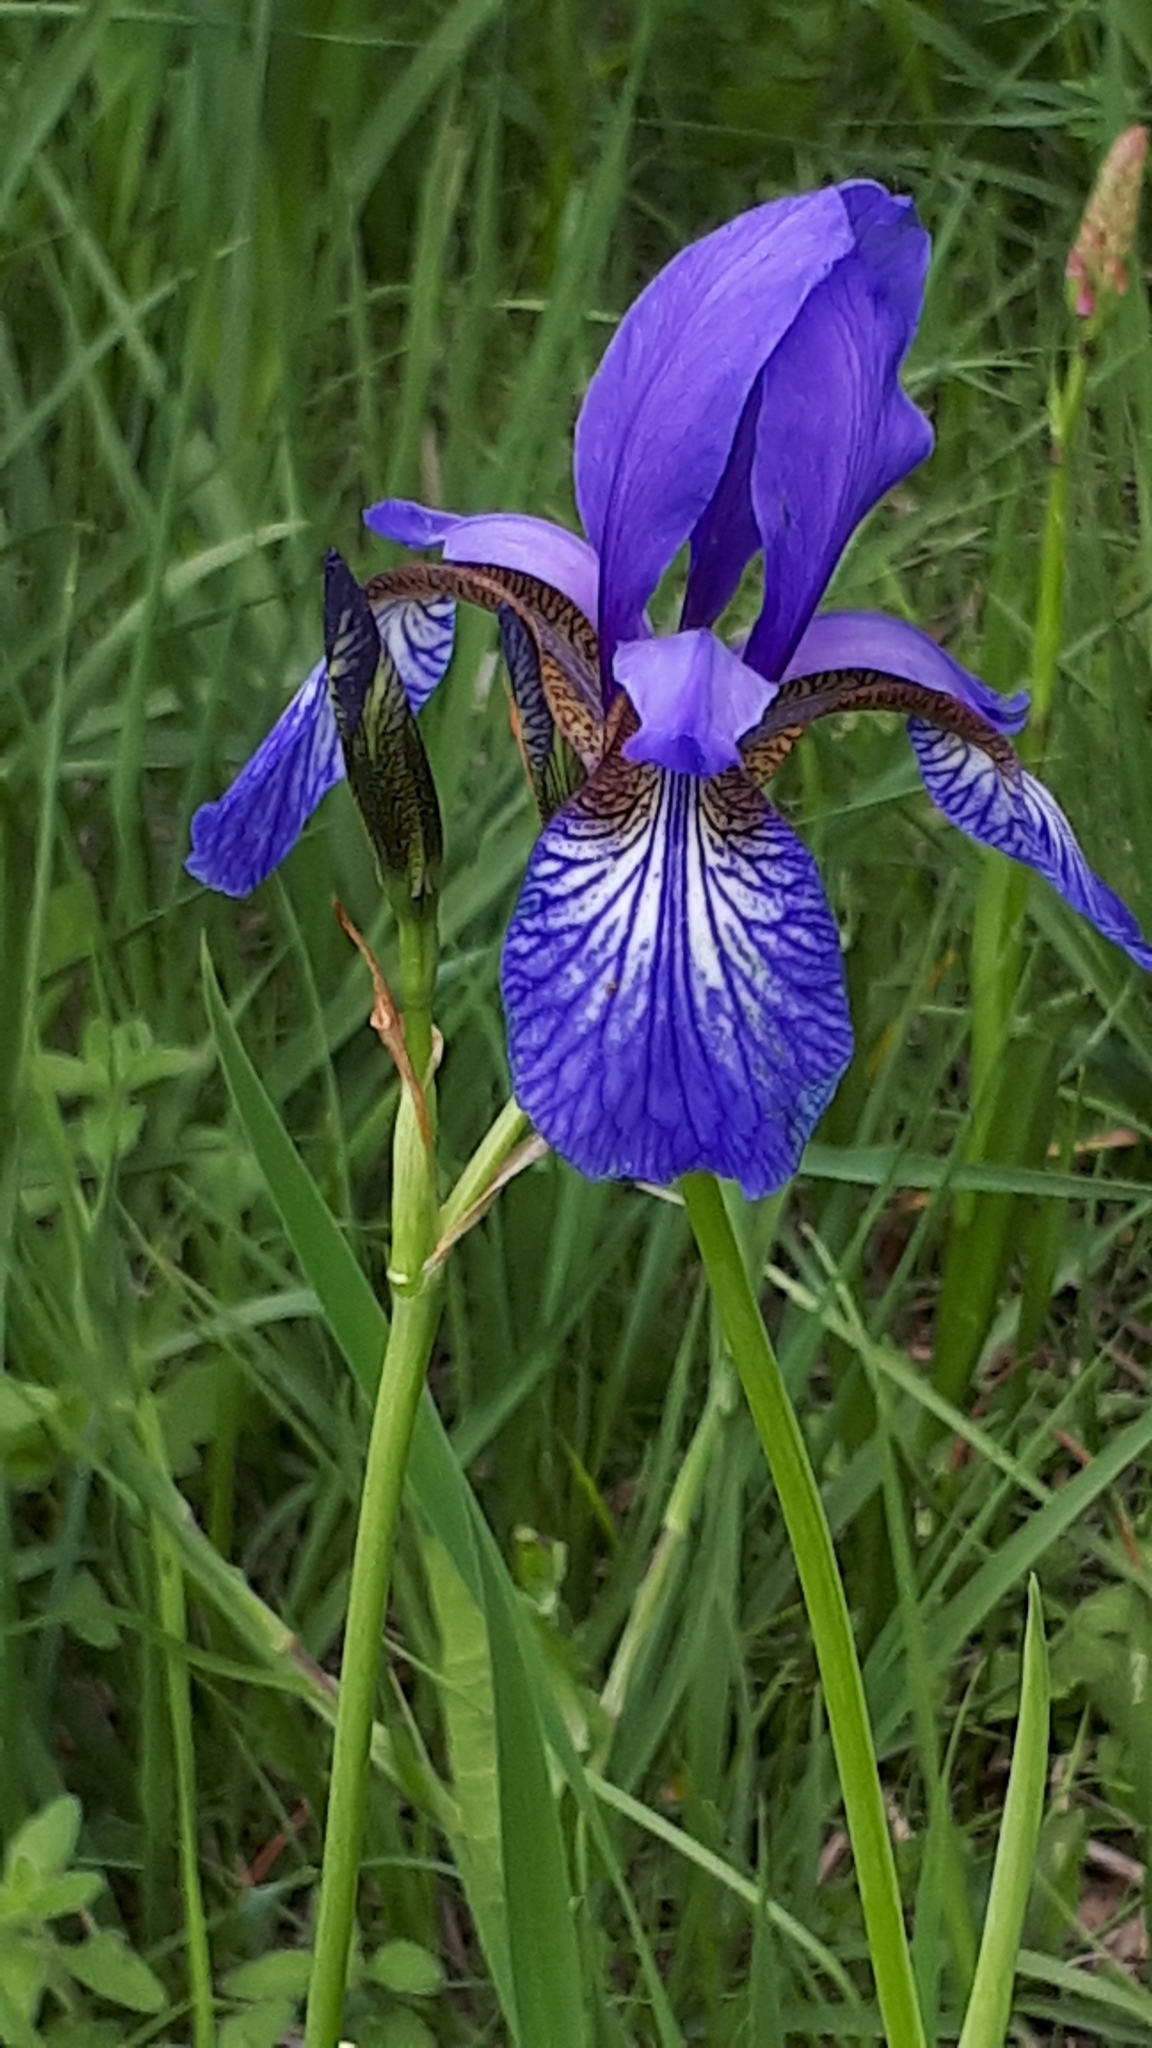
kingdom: Plantae
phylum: Tracheophyta
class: Liliopsida
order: Asparagales
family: Iridaceae
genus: Iris
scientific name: Iris sibirica
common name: Siberian iris
